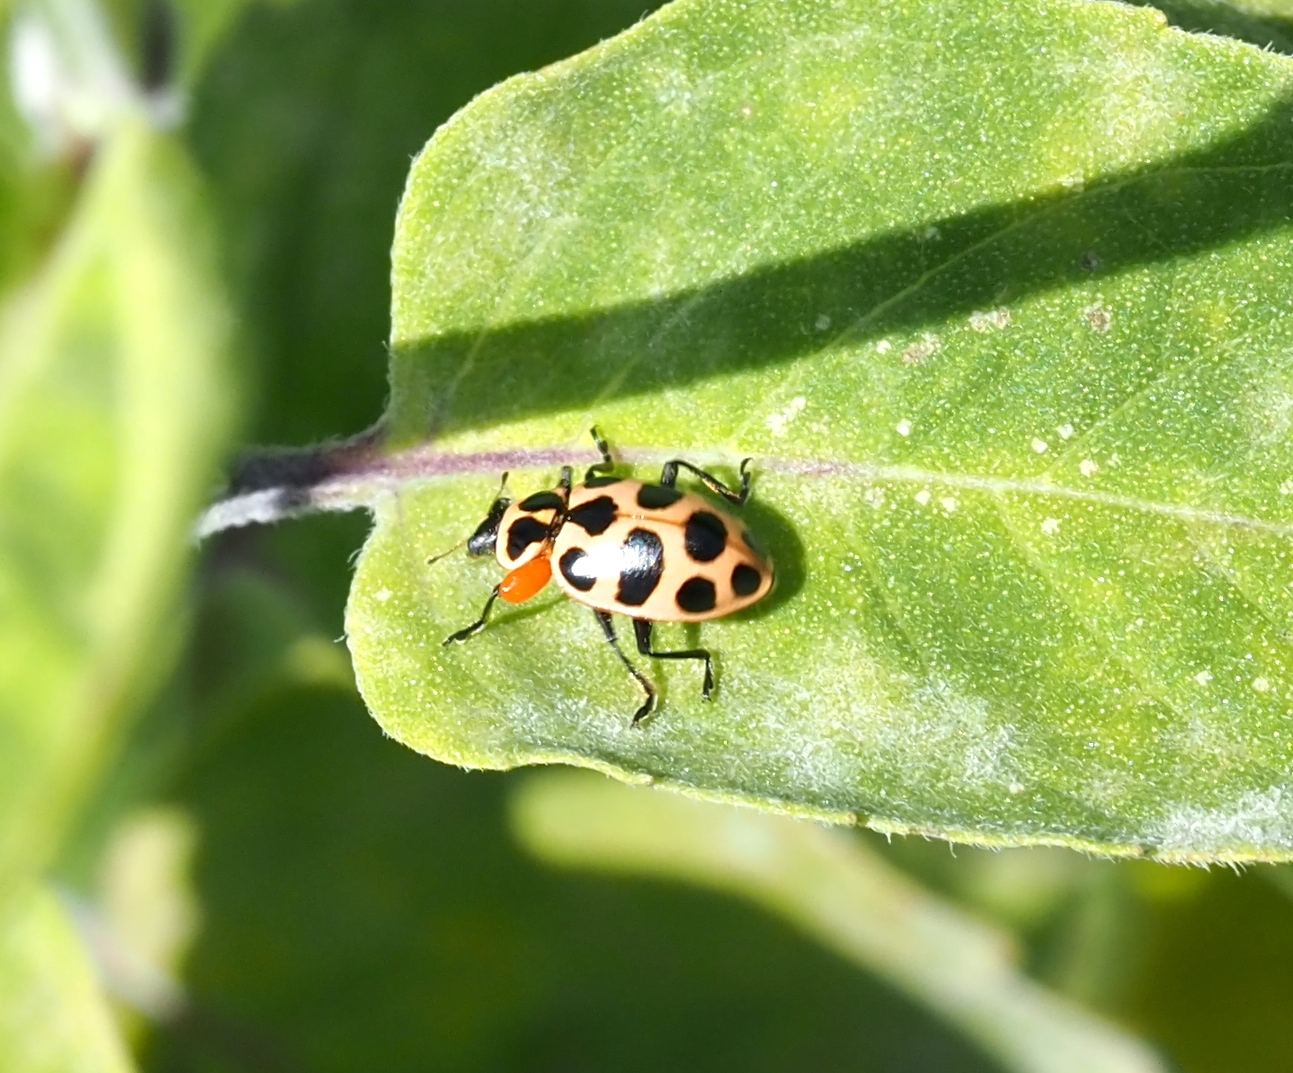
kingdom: Animalia
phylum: Arthropoda
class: Insecta
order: Coleoptera
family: Coccinellidae
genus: Coleomegilla
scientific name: Coleomegilla maculata
